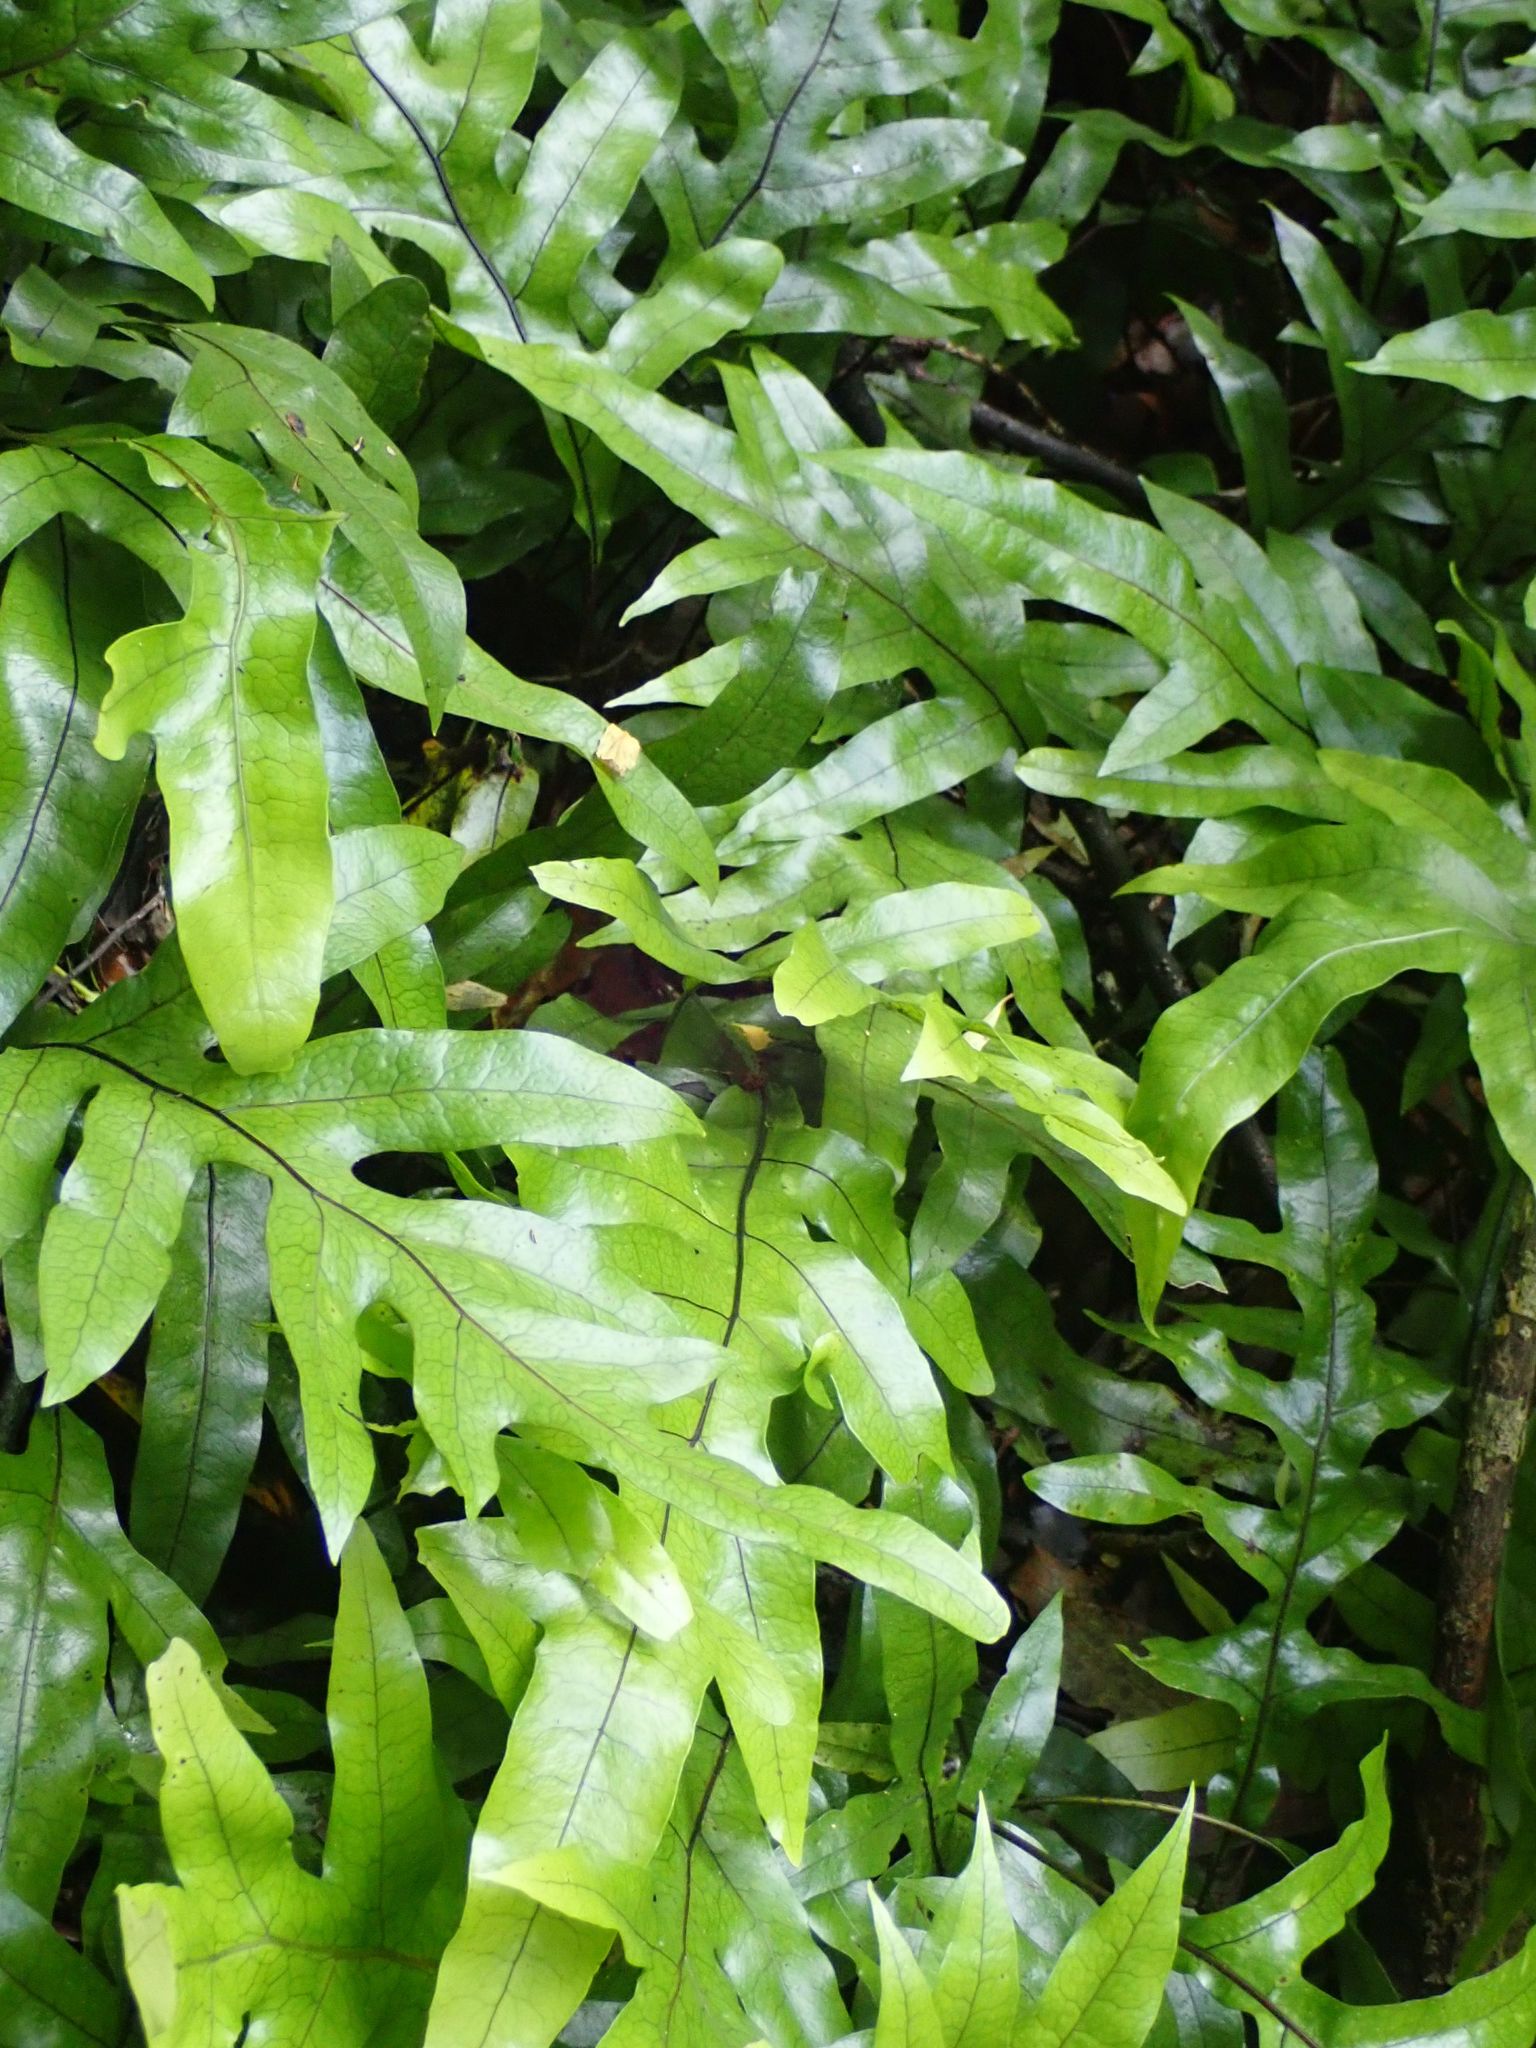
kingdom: Plantae
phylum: Tracheophyta
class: Polypodiopsida
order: Polypodiales
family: Polypodiaceae
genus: Lecanopteris
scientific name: Lecanopteris pustulata
